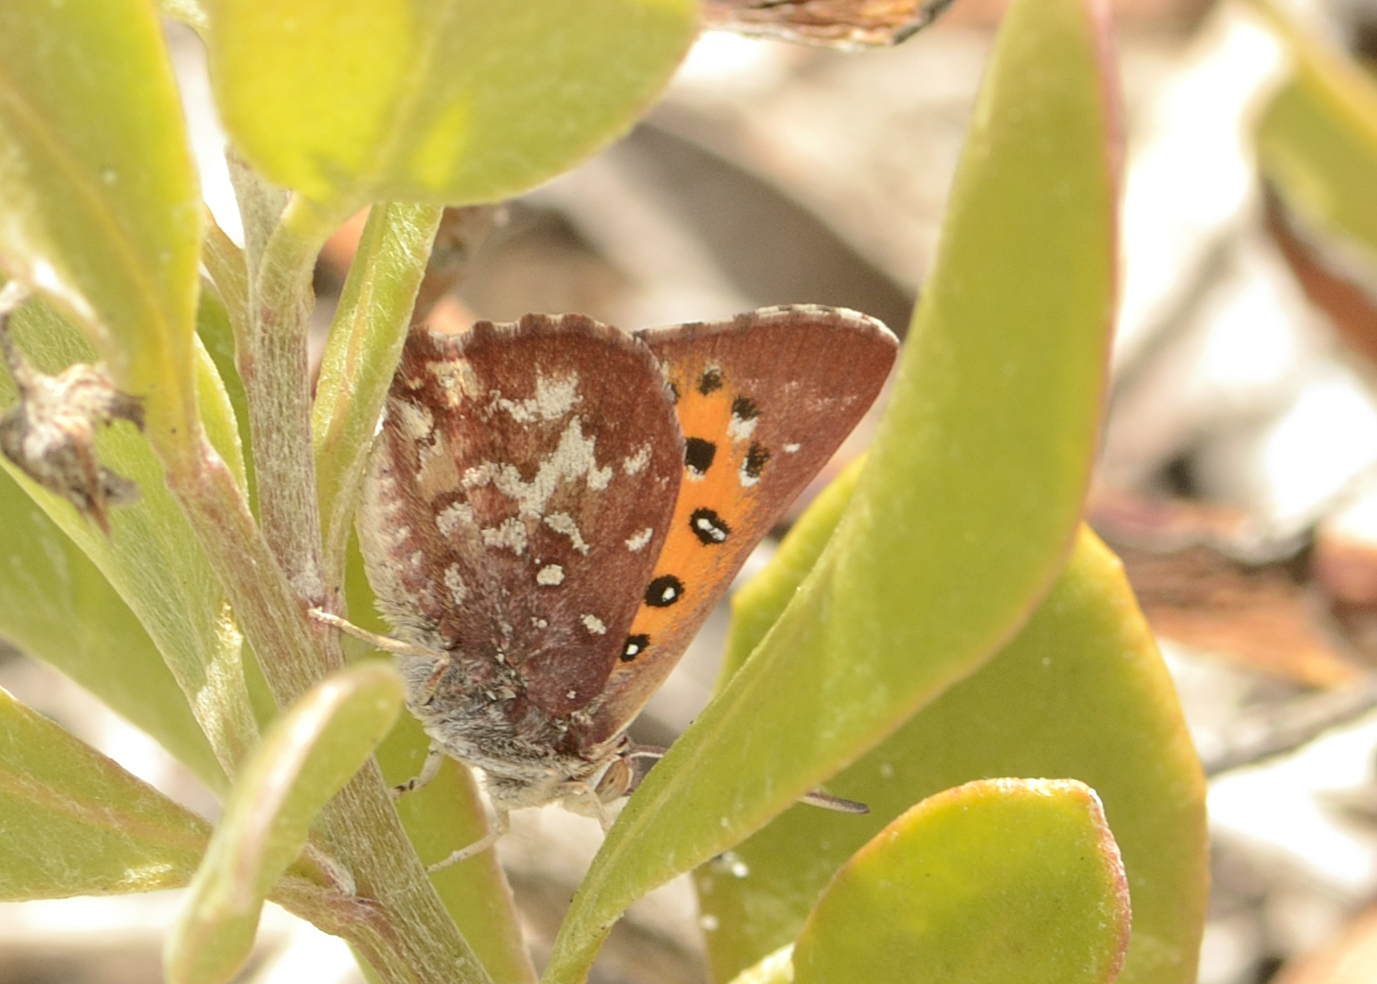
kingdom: Animalia
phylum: Arthropoda
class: Insecta
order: Lepidoptera
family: Lycaenidae
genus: Aloeides
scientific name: Aloeides egerides
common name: Red hill copper
